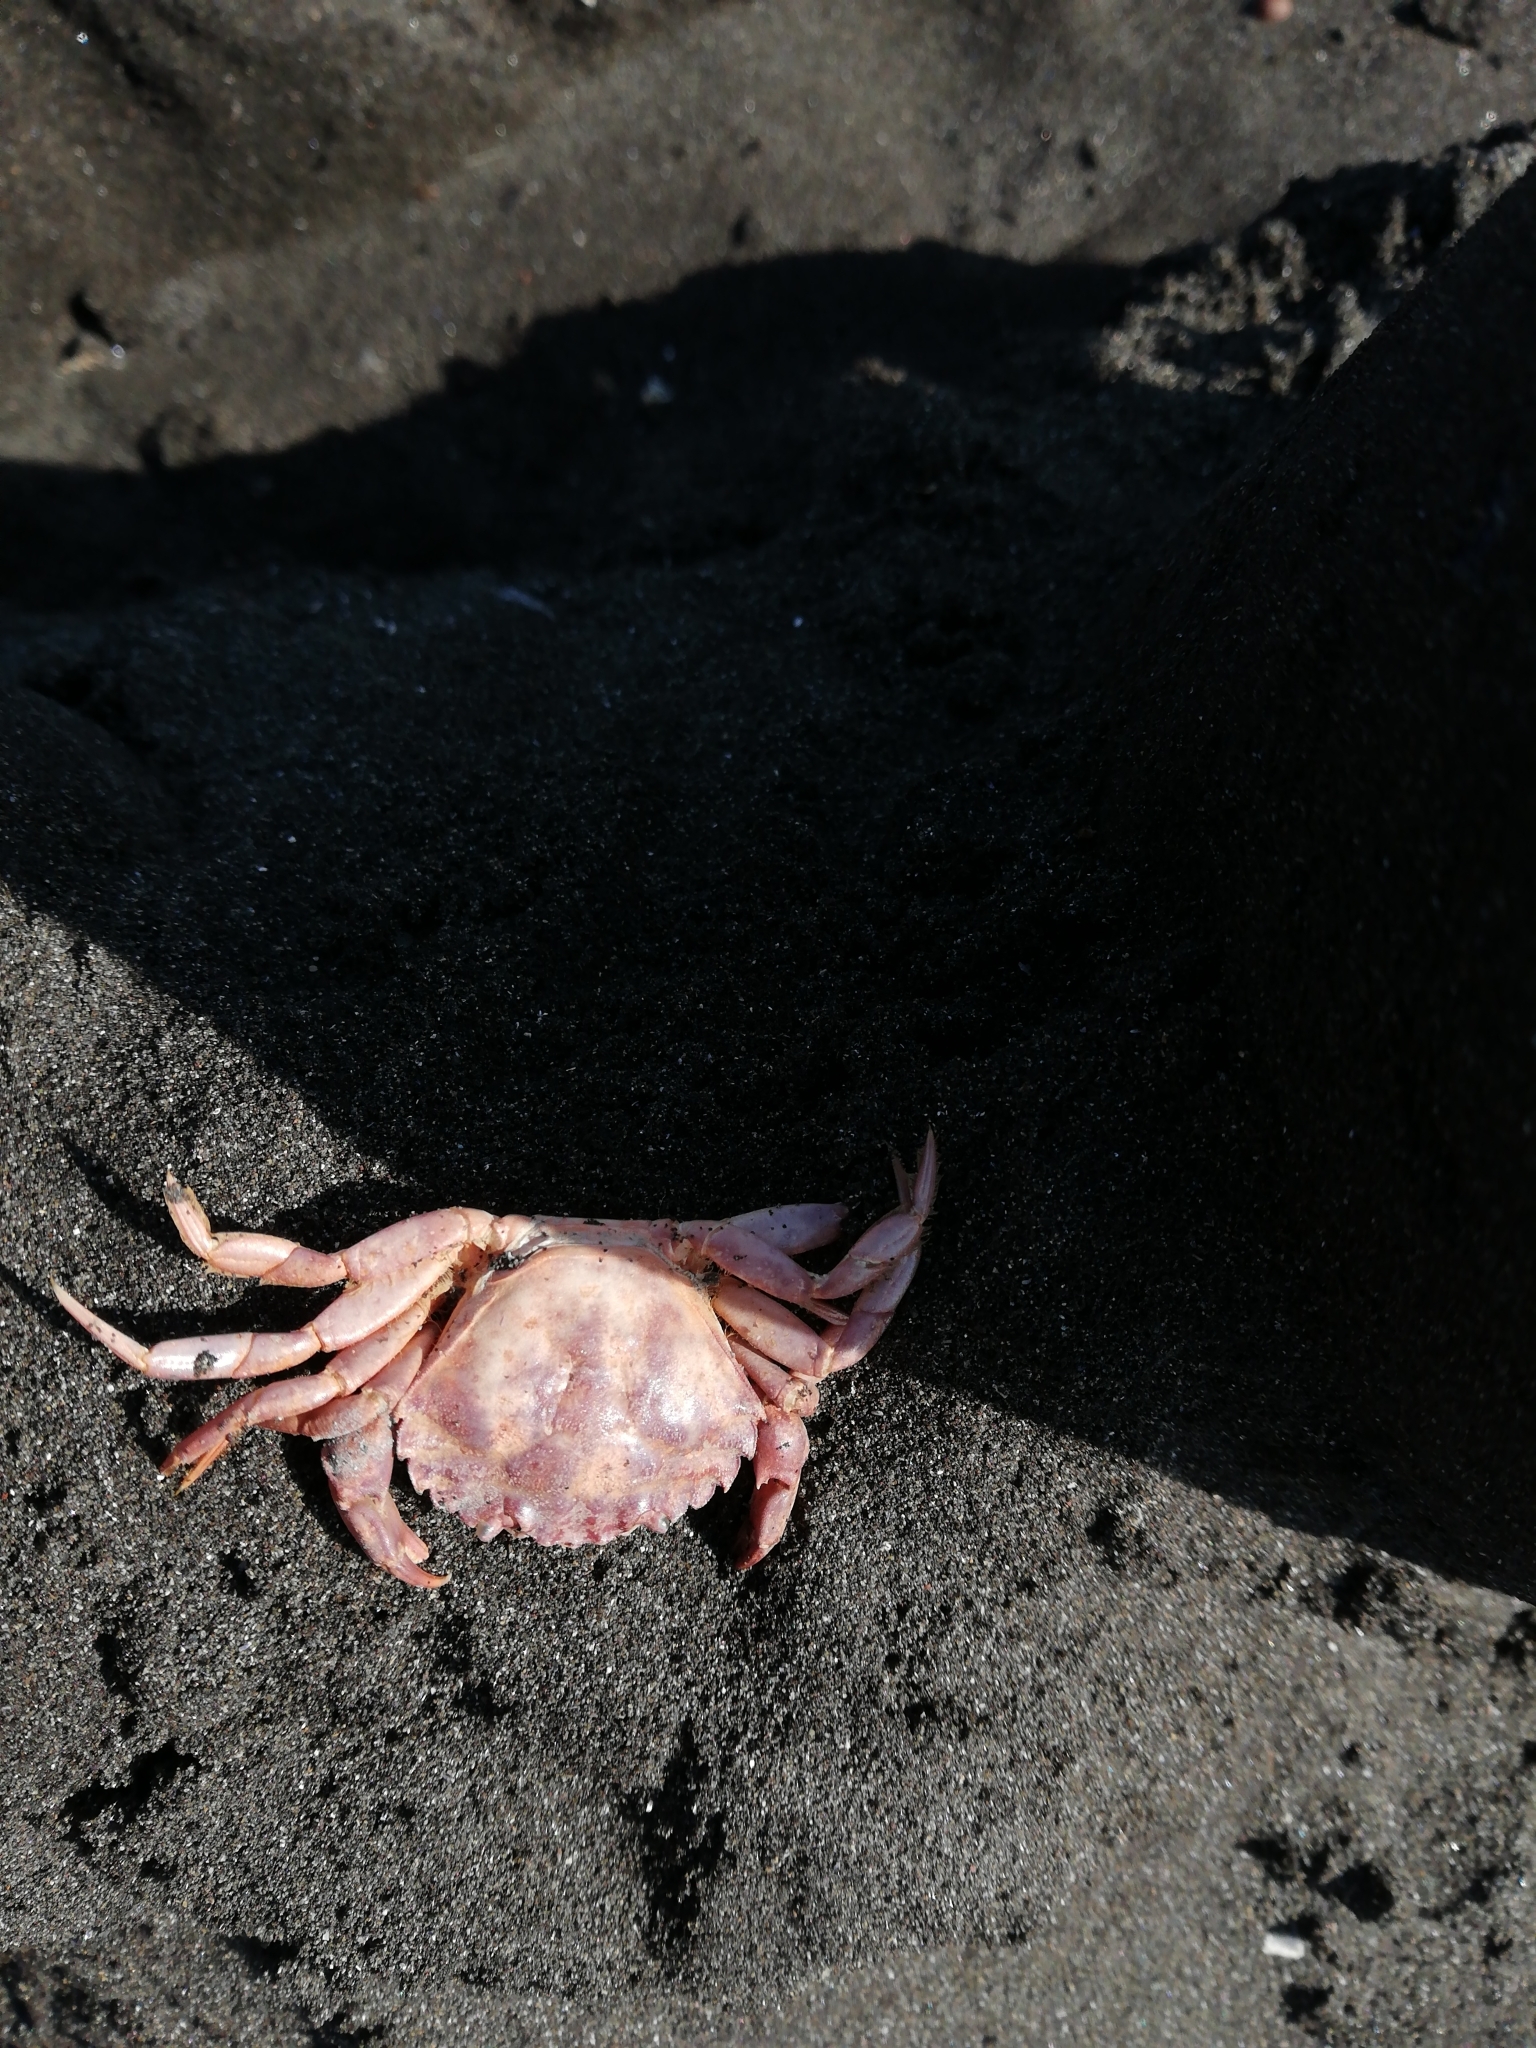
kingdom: Animalia
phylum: Arthropoda
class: Malacostraca
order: Decapoda
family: Carcinidae
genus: Carcinus
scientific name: Carcinus maenas
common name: European green crab
